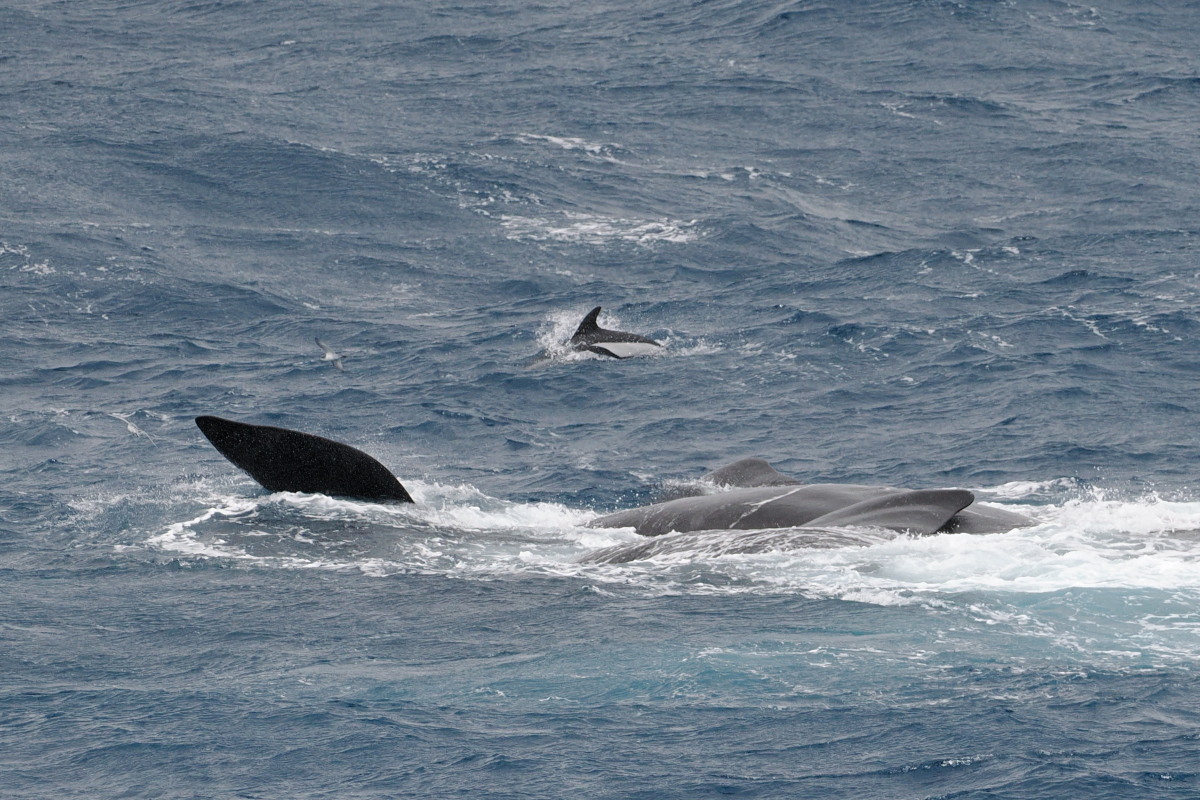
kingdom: Animalia
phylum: Chordata
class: Mammalia
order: Cetacea
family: Delphinidae
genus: Lagenorhynchus
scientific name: Lagenorhynchus cruciger
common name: Hourglass dolphin
